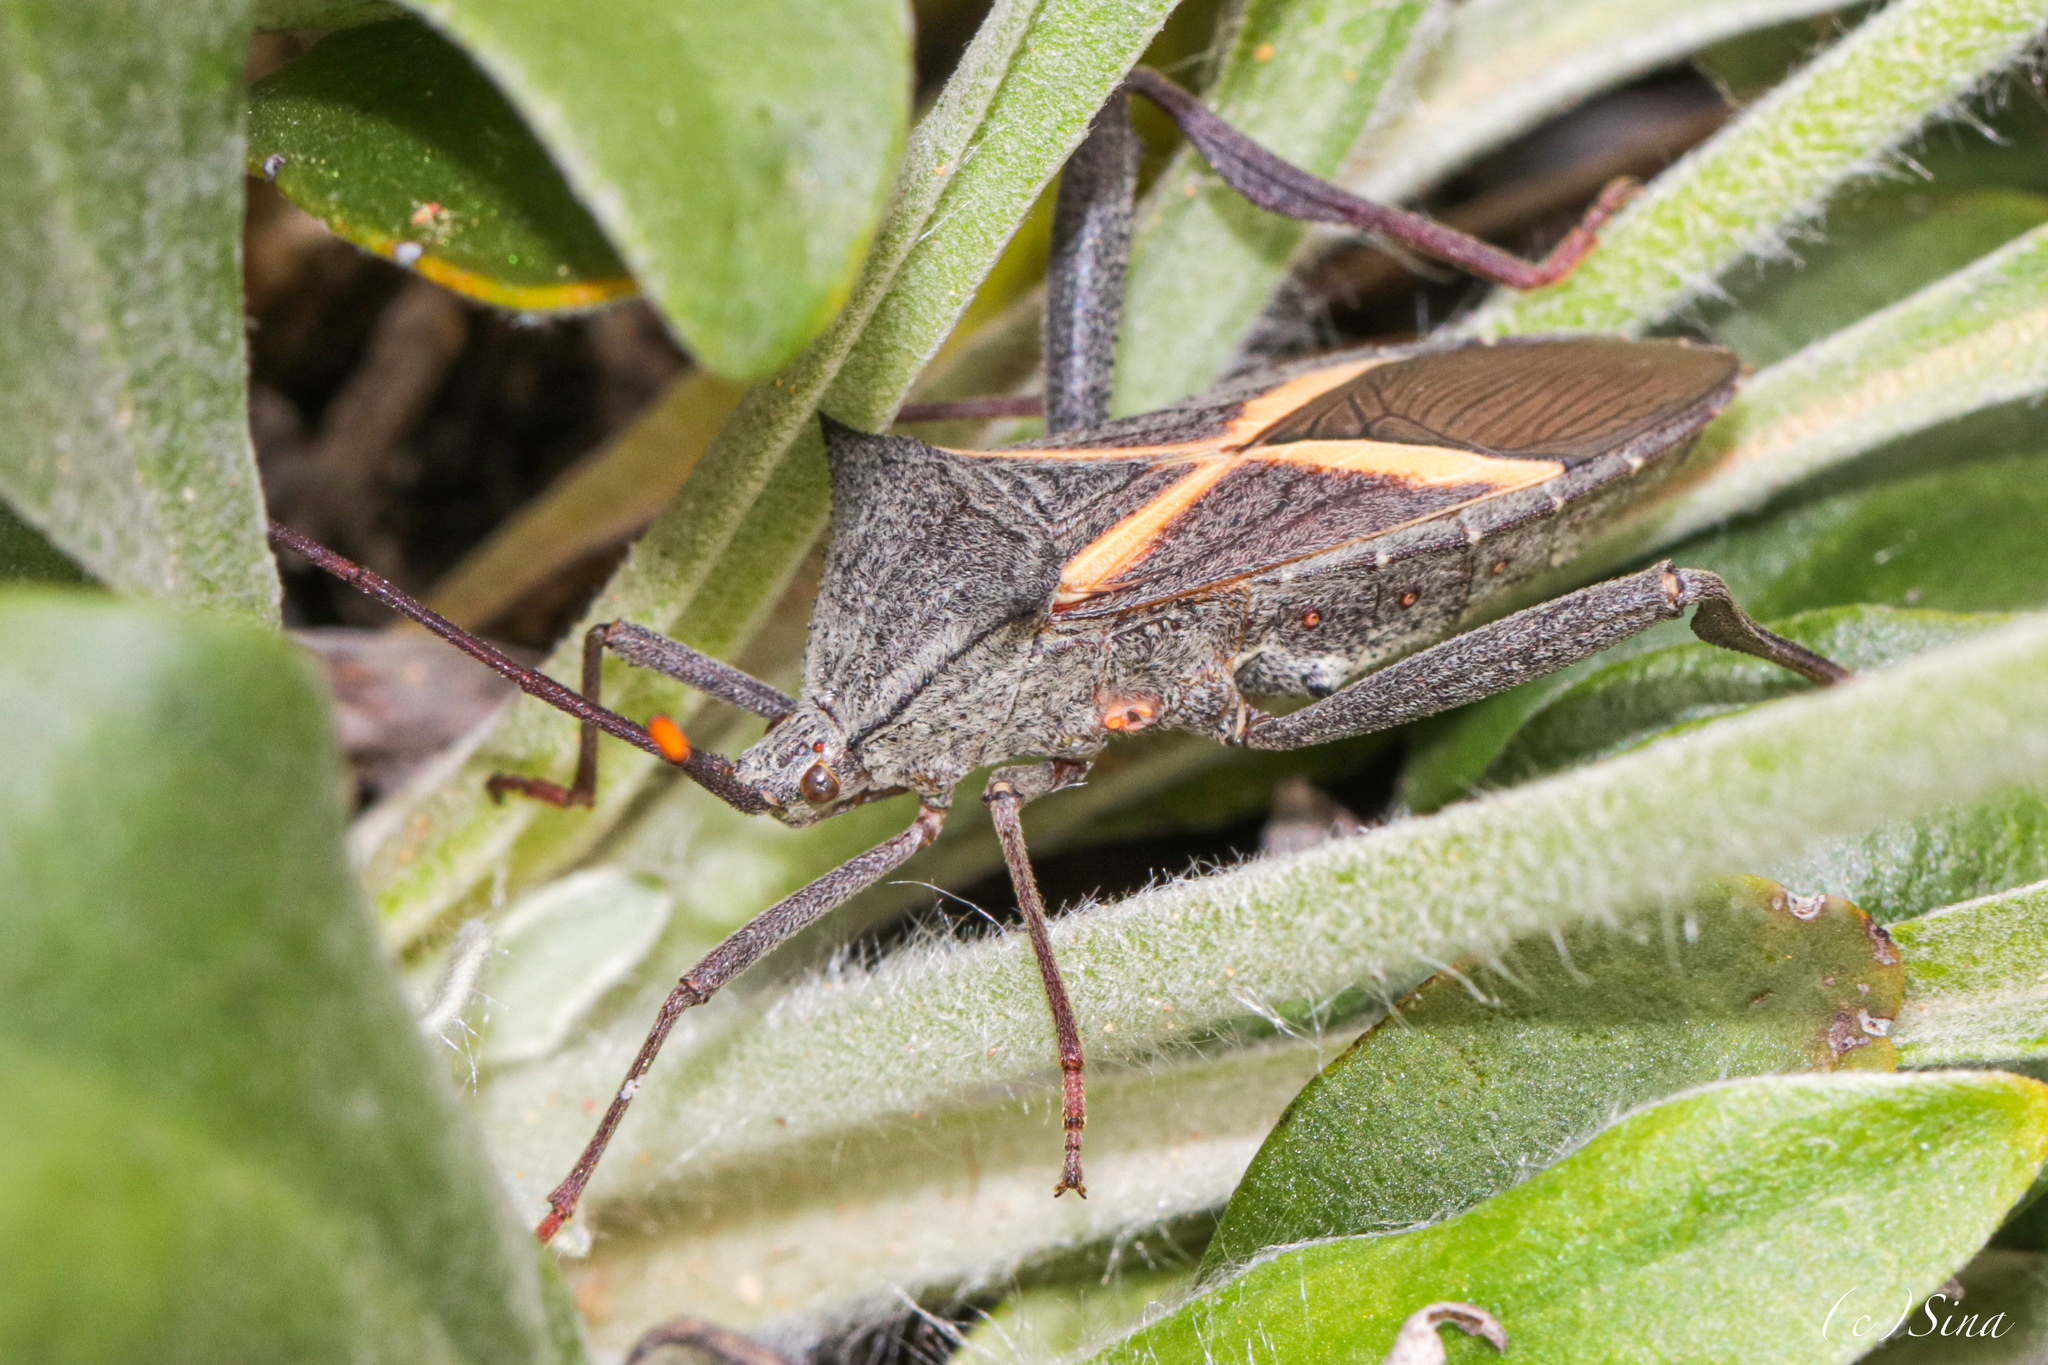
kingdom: Animalia
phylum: Arthropoda
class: Insecta
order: Hemiptera
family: Coreidae
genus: Mictis
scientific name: Mictis profana
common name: Crusader bug
